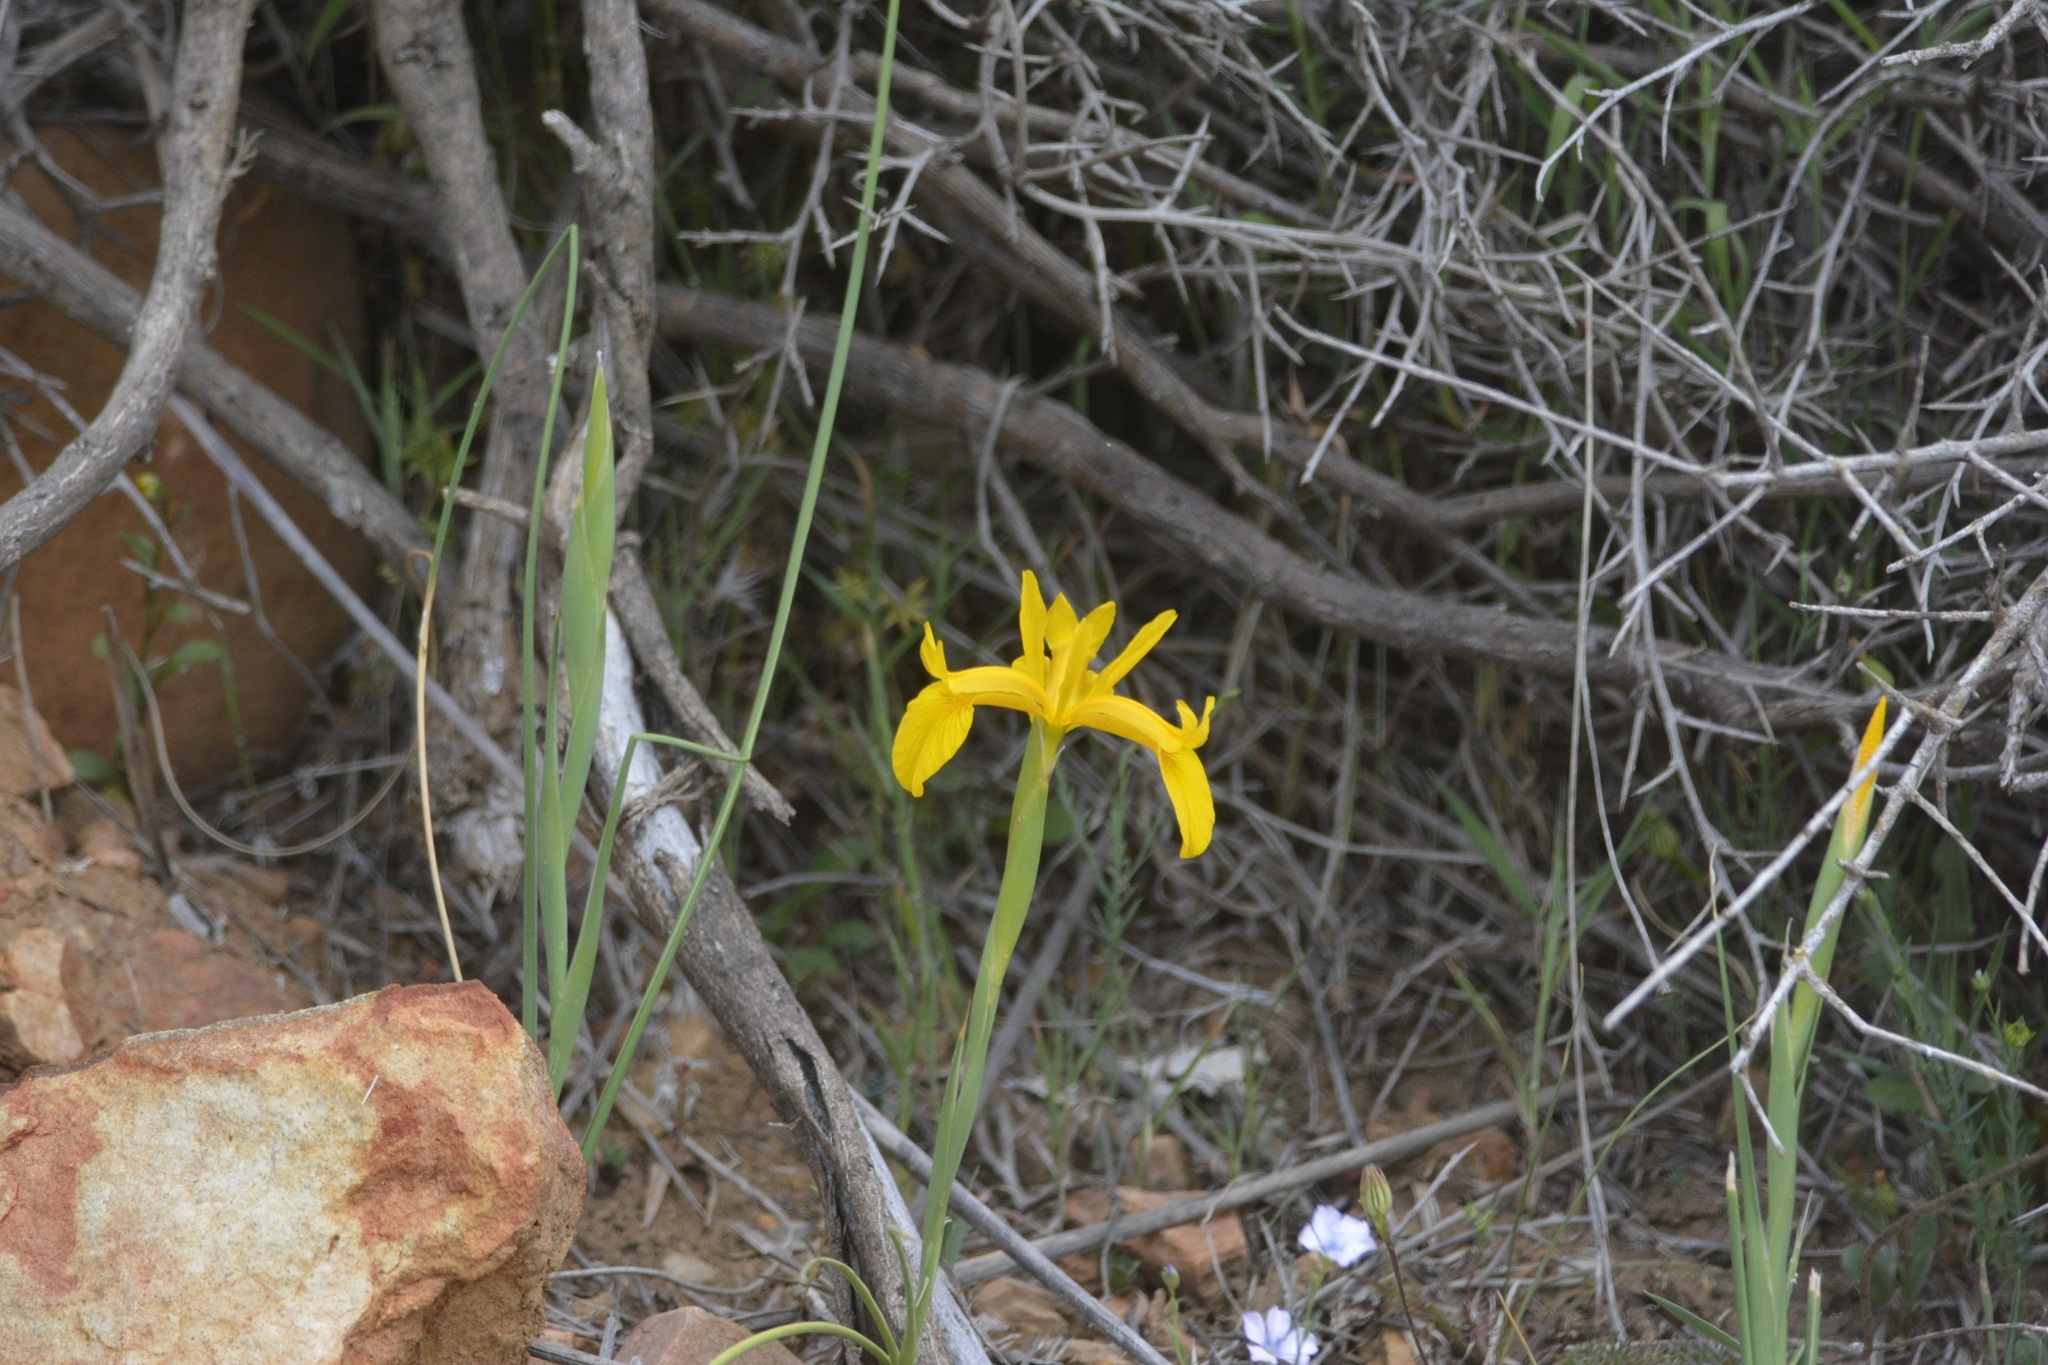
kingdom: Plantae
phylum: Tracheophyta
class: Liliopsida
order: Asparagales
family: Iridaceae
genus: Iris
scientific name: Iris juncea
